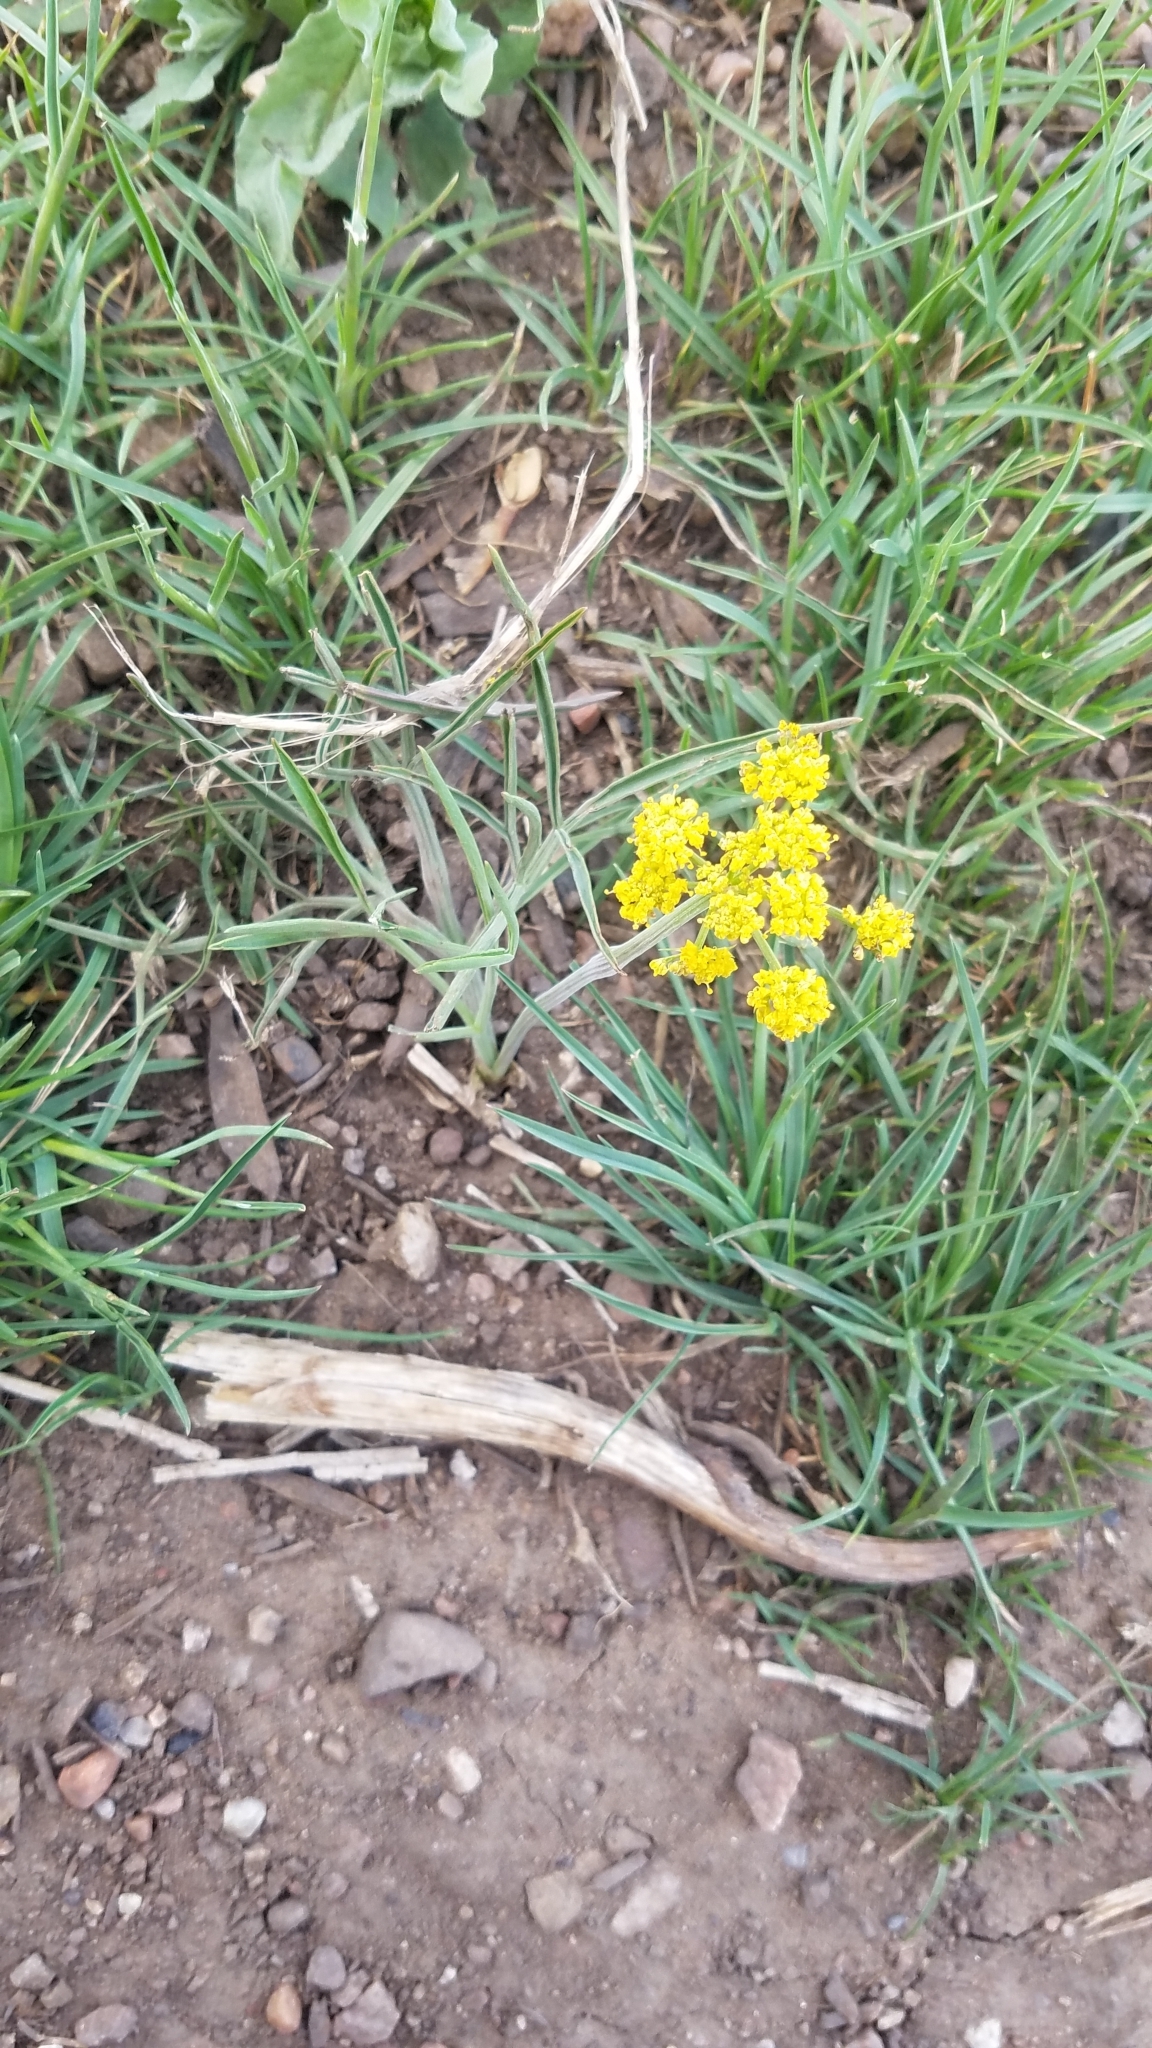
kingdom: Plantae
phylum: Tracheophyta
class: Magnoliopsida
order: Apiales
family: Apiaceae
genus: Lomatium
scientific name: Lomatium triternatum
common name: Ternate lomatium
